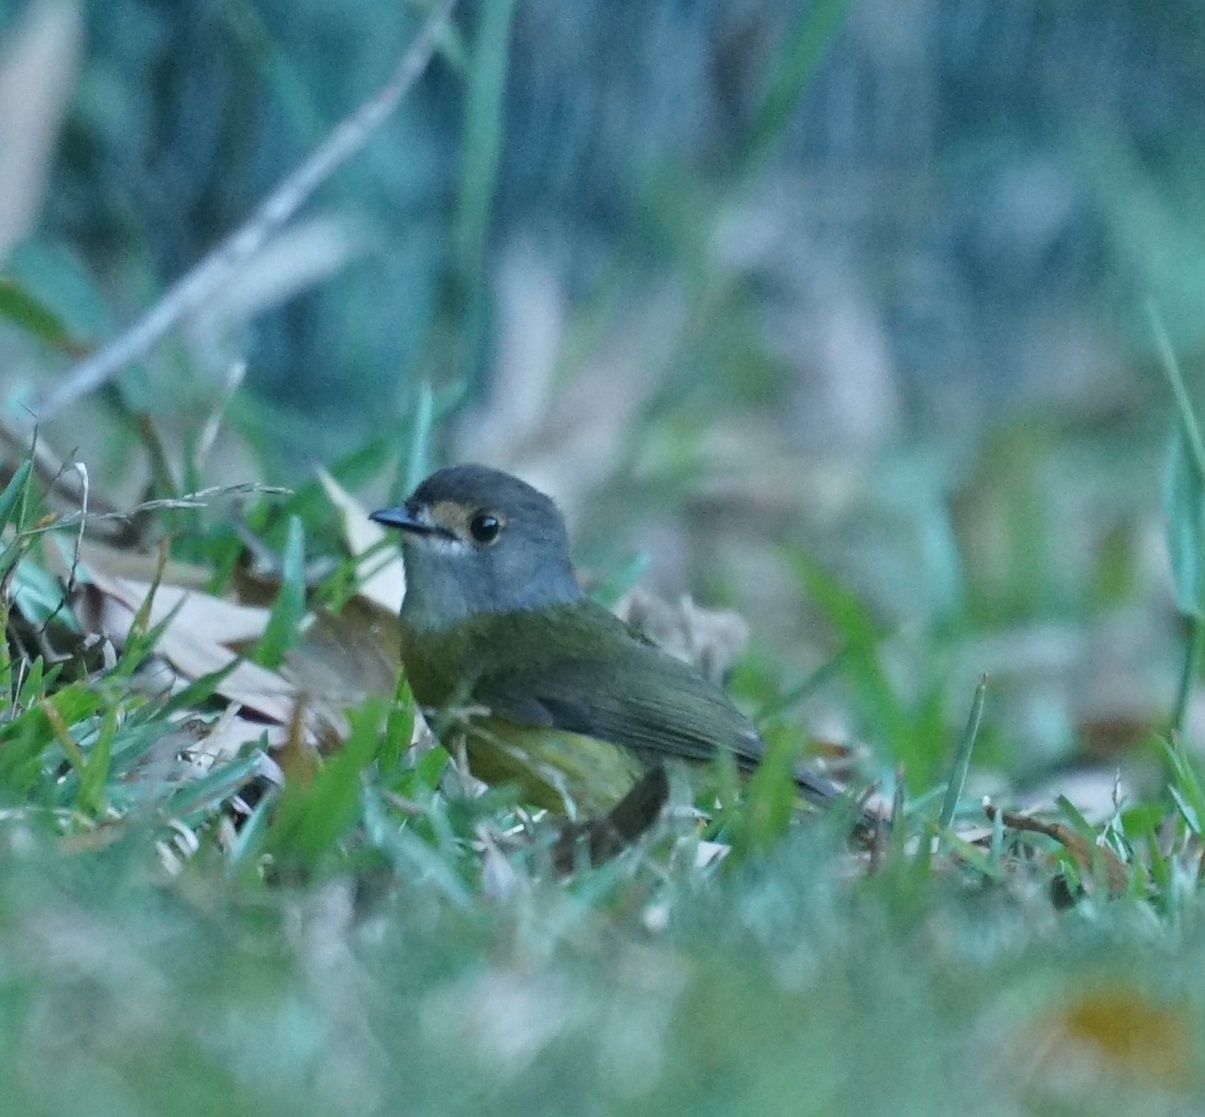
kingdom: Animalia
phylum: Chordata
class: Aves
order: Passeriformes
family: Petroicidae
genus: Eopsaltria
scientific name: Eopsaltria
